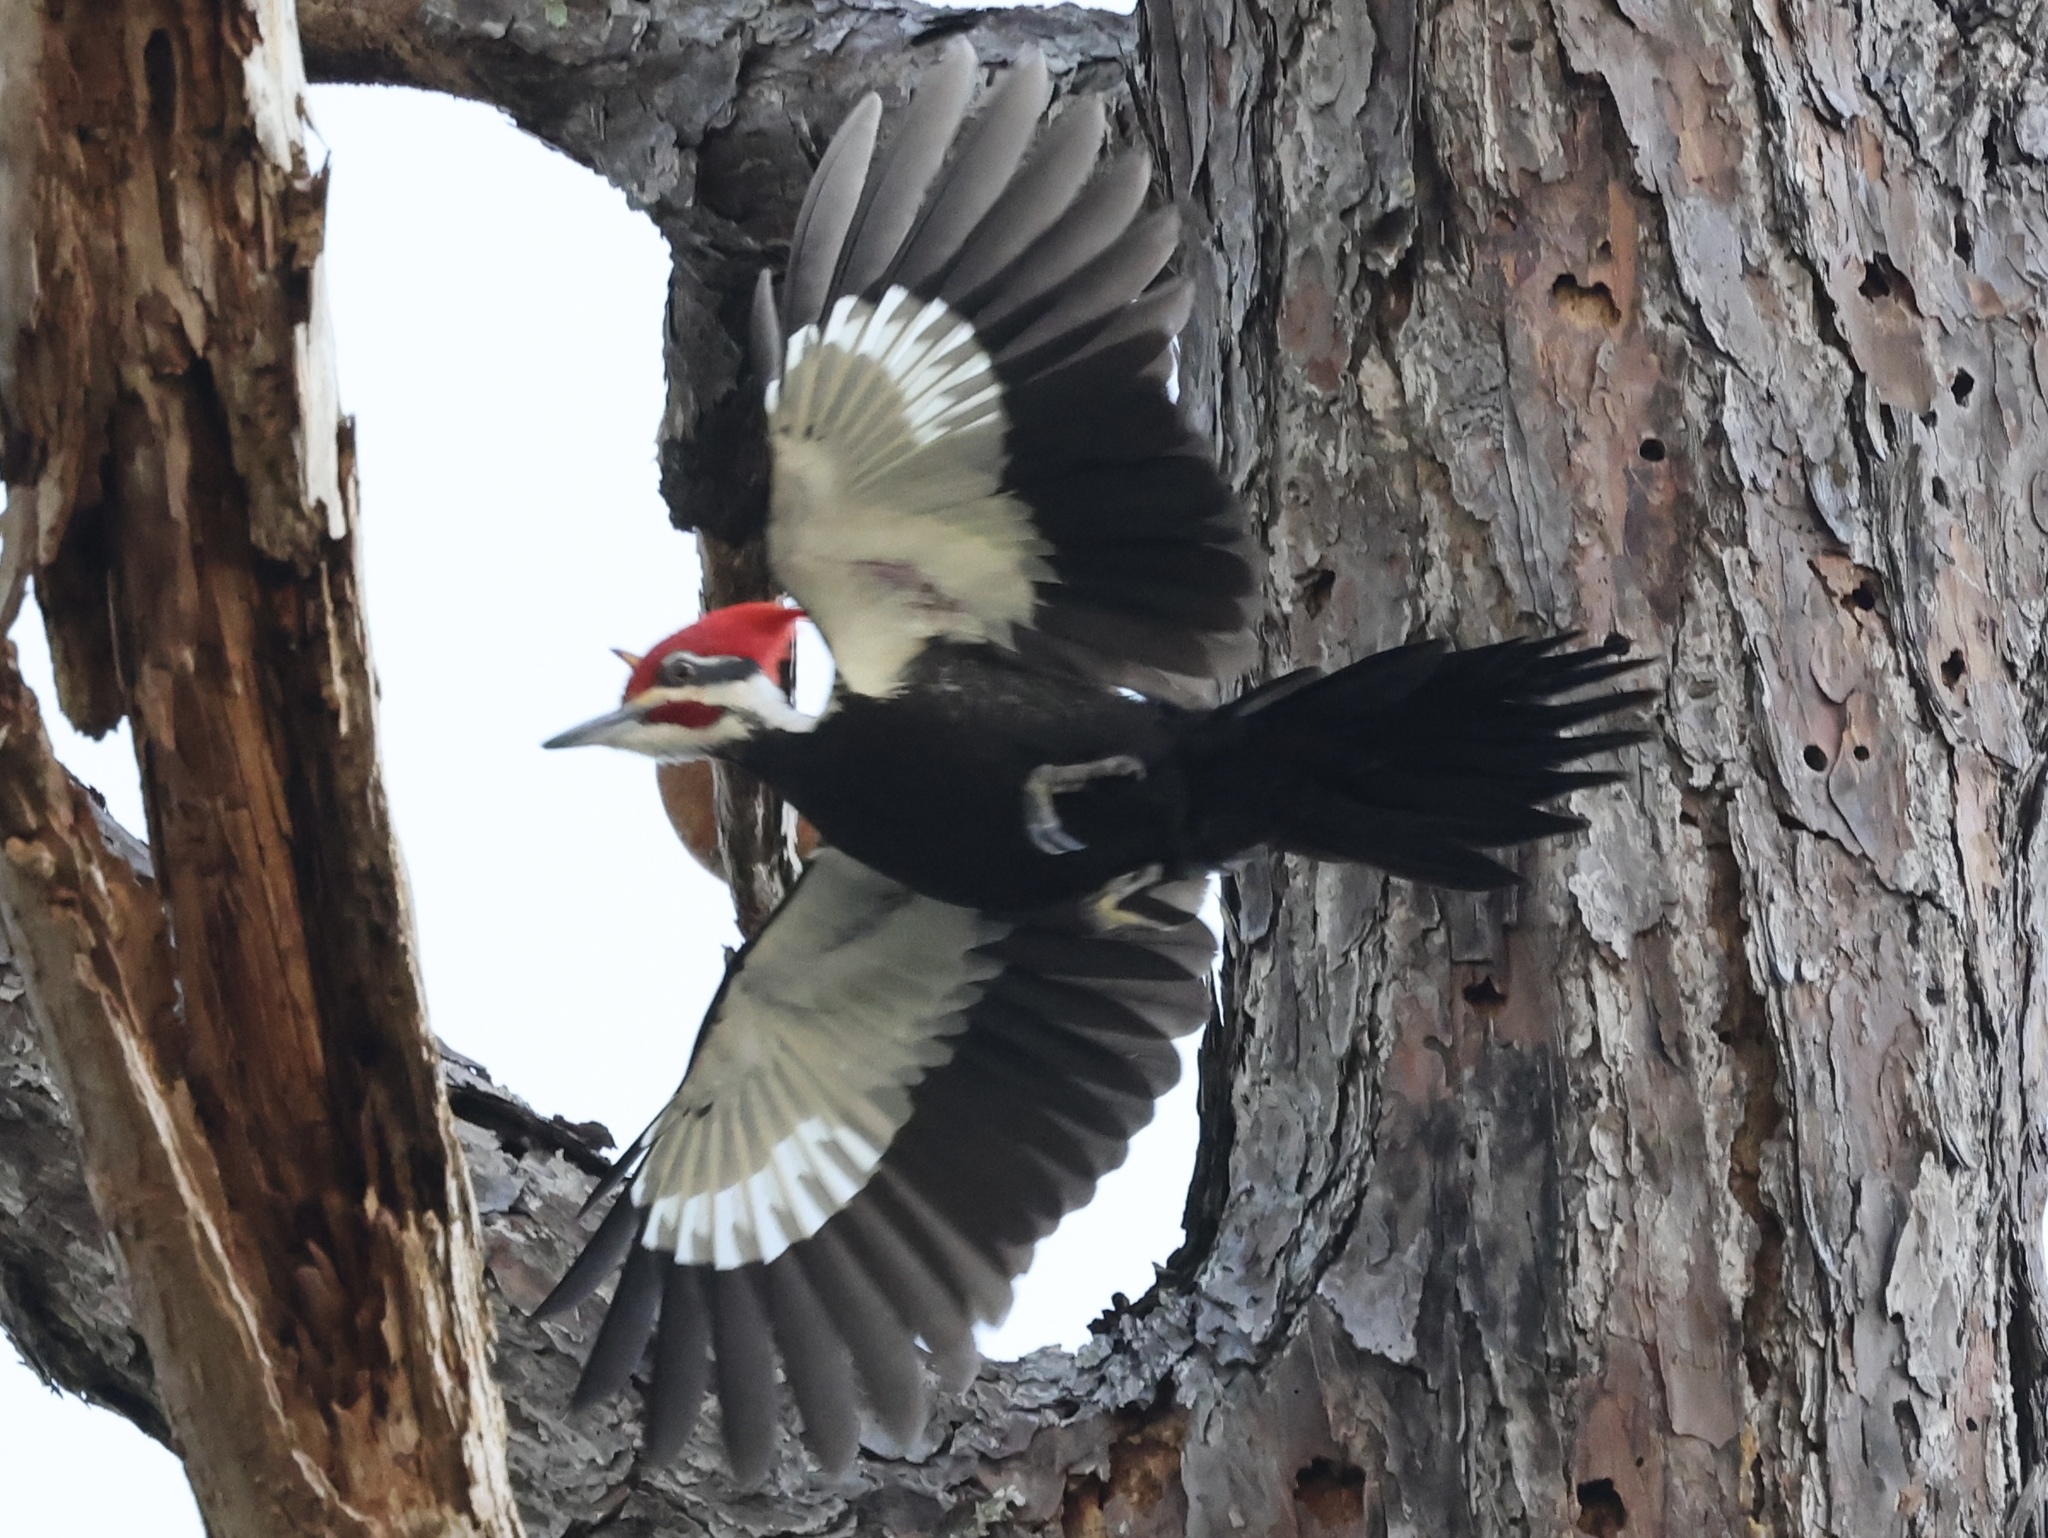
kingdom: Animalia
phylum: Chordata
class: Aves
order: Piciformes
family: Picidae
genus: Dryocopus
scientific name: Dryocopus pileatus
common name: Pileated woodpecker
